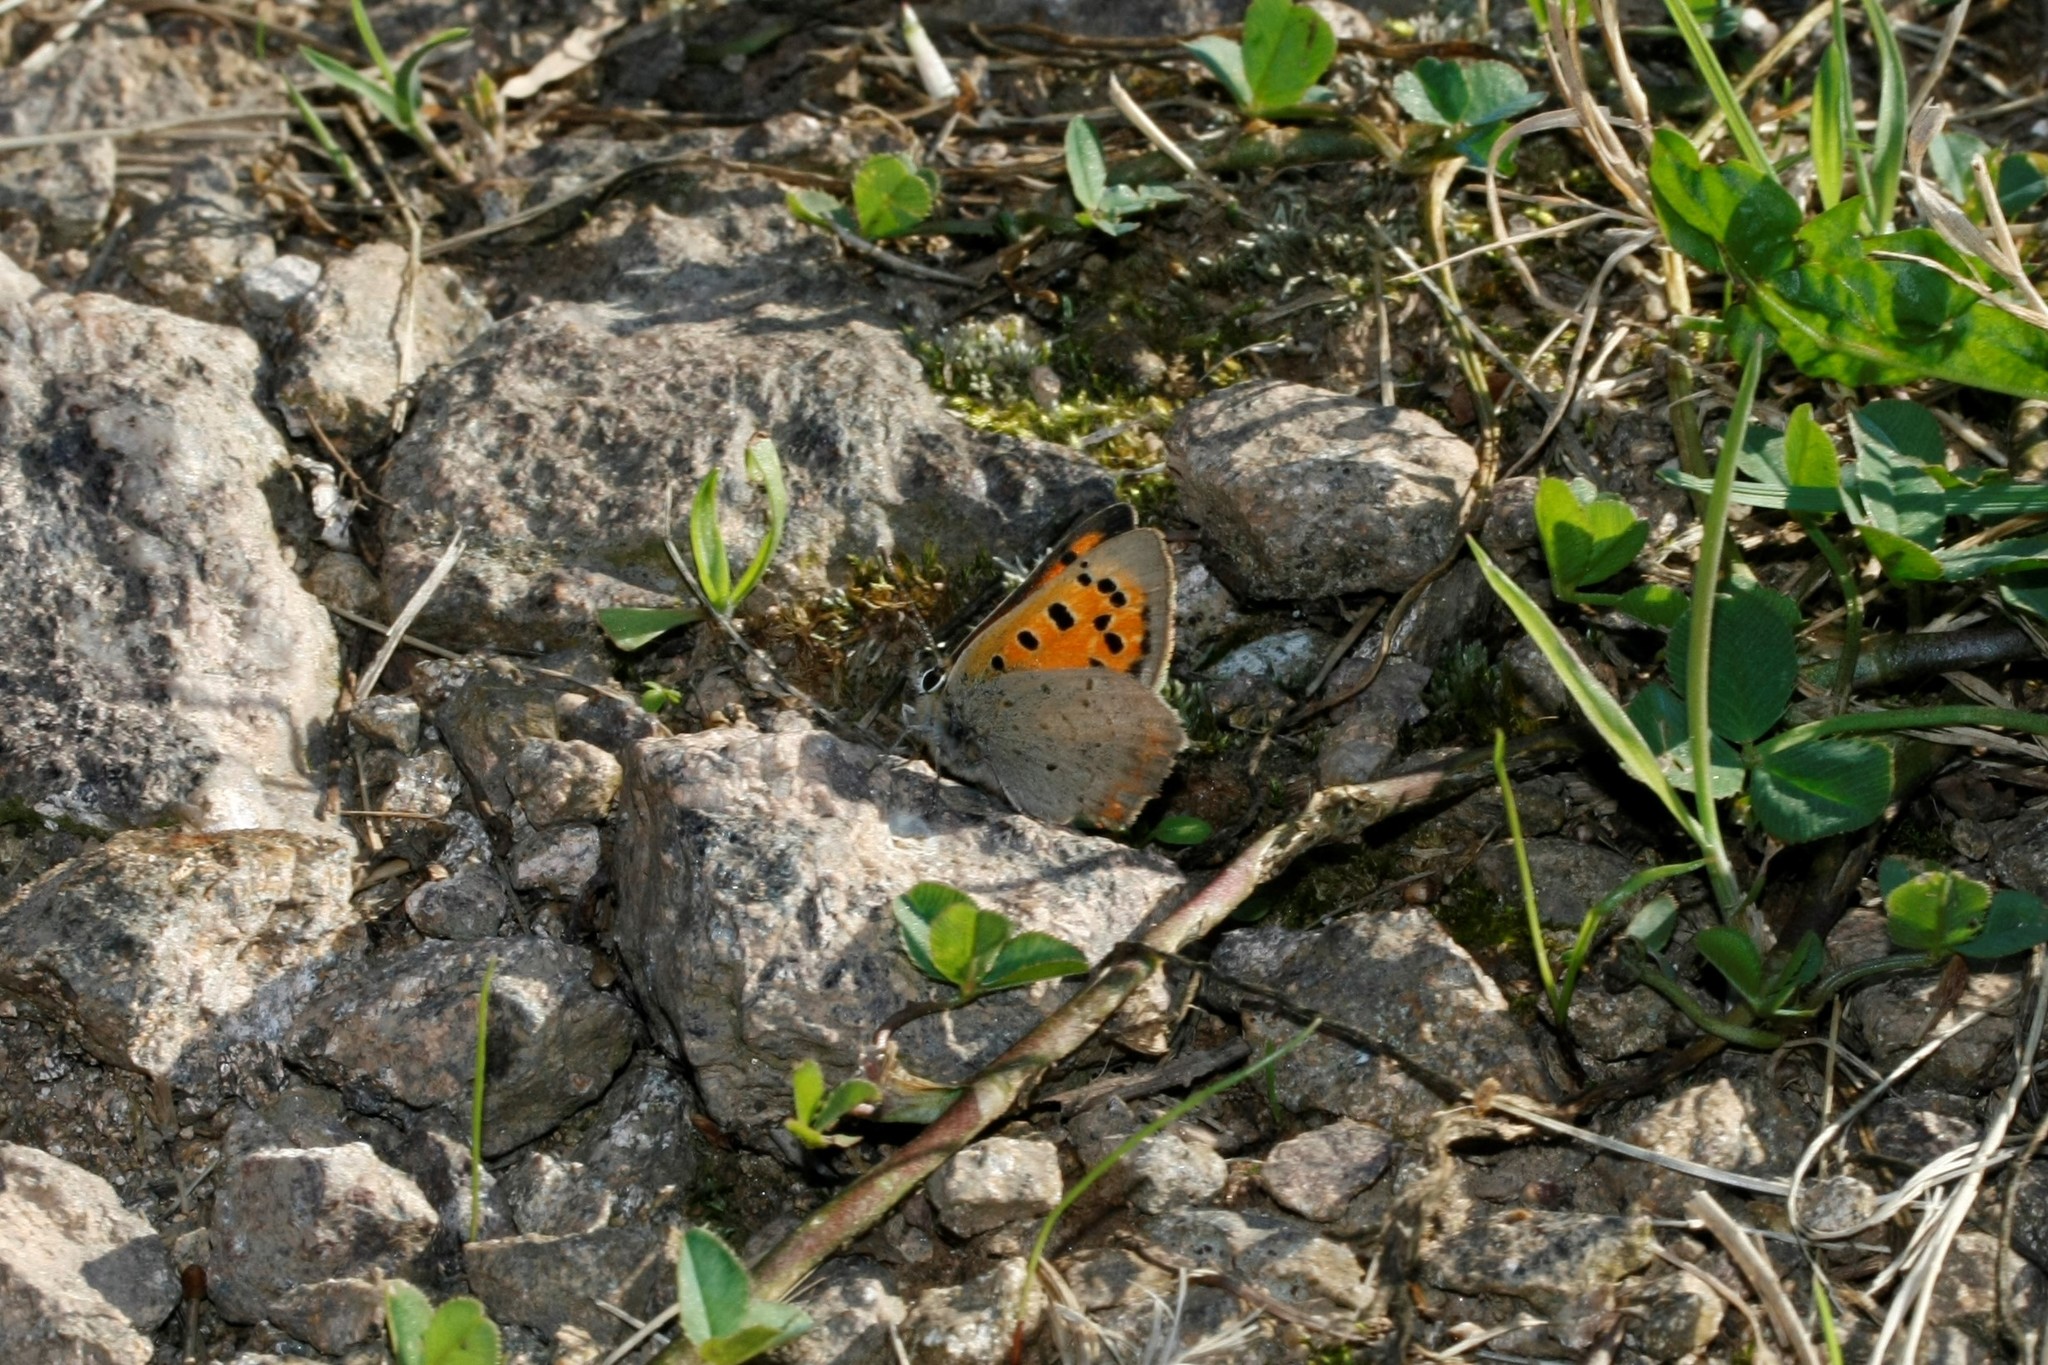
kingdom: Animalia
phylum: Arthropoda
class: Insecta
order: Lepidoptera
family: Lycaenidae
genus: Lycaena
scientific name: Lycaena phlaeas
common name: Small copper
